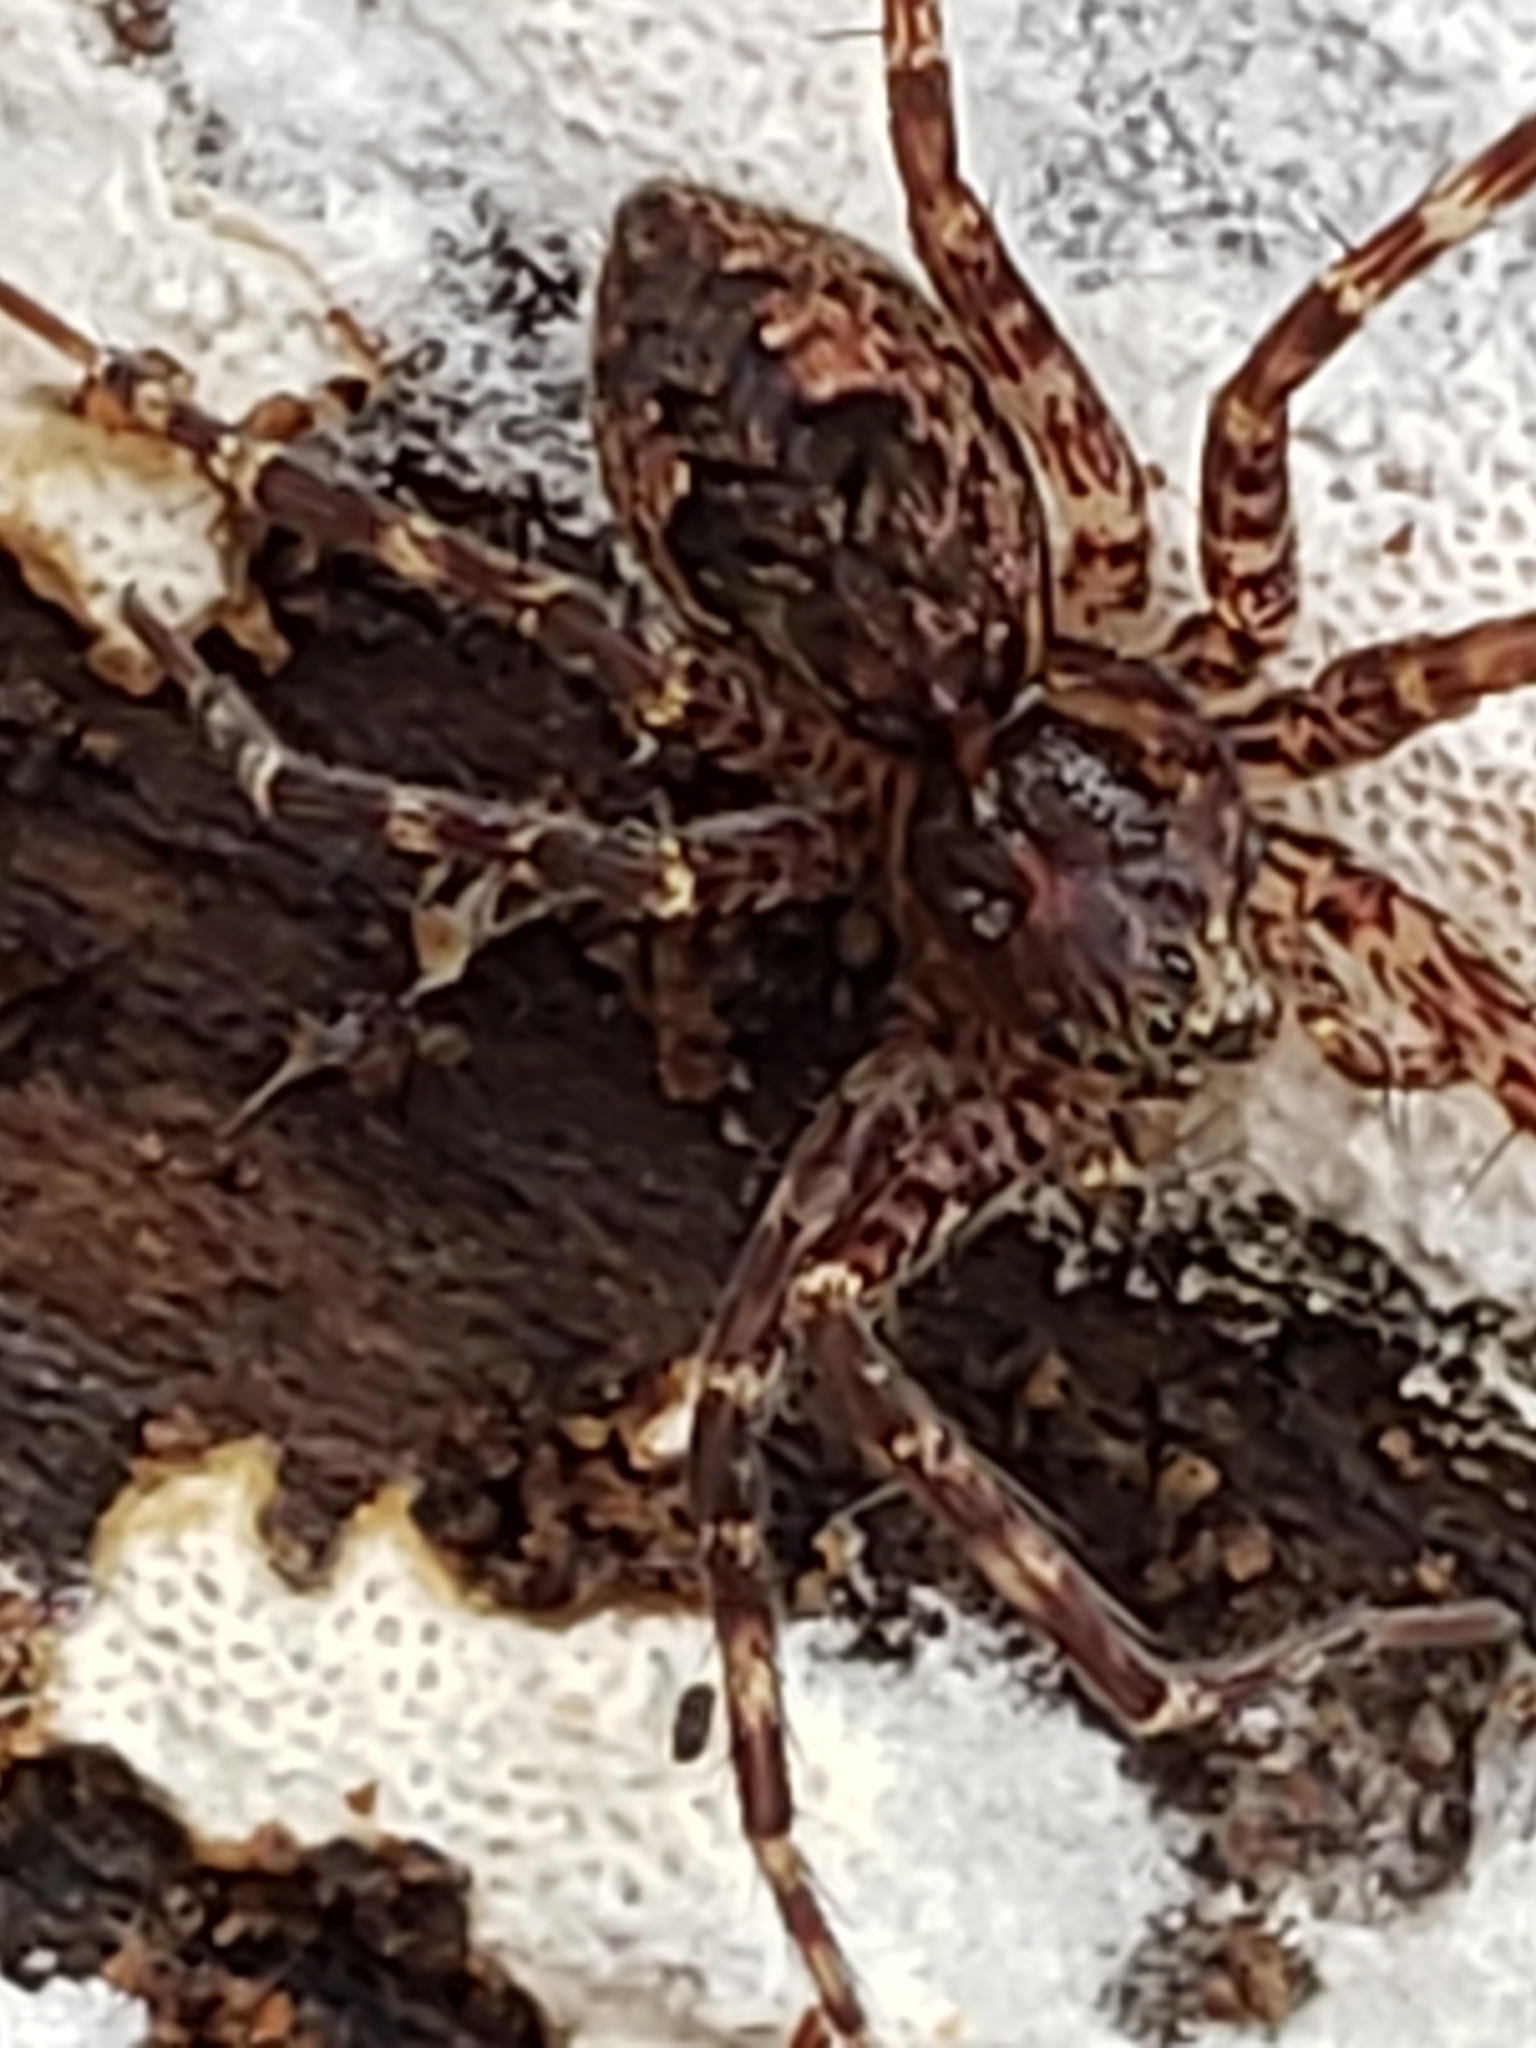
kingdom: Animalia
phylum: Arthropoda
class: Arachnida
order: Araneae
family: Pisauridae
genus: Dolomedes
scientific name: Dolomedes tenebrosus
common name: Dark fishing spider
